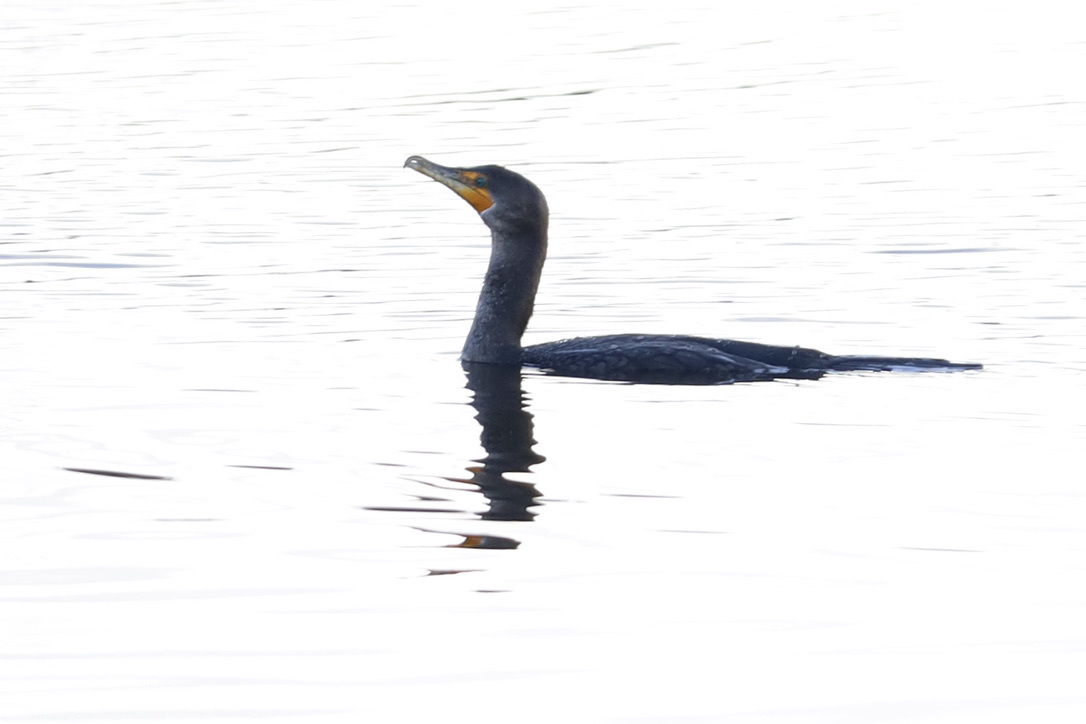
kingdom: Animalia
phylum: Chordata
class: Aves
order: Suliformes
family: Phalacrocoracidae
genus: Phalacrocorax
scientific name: Phalacrocorax auritus
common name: Double-crested cormorant
